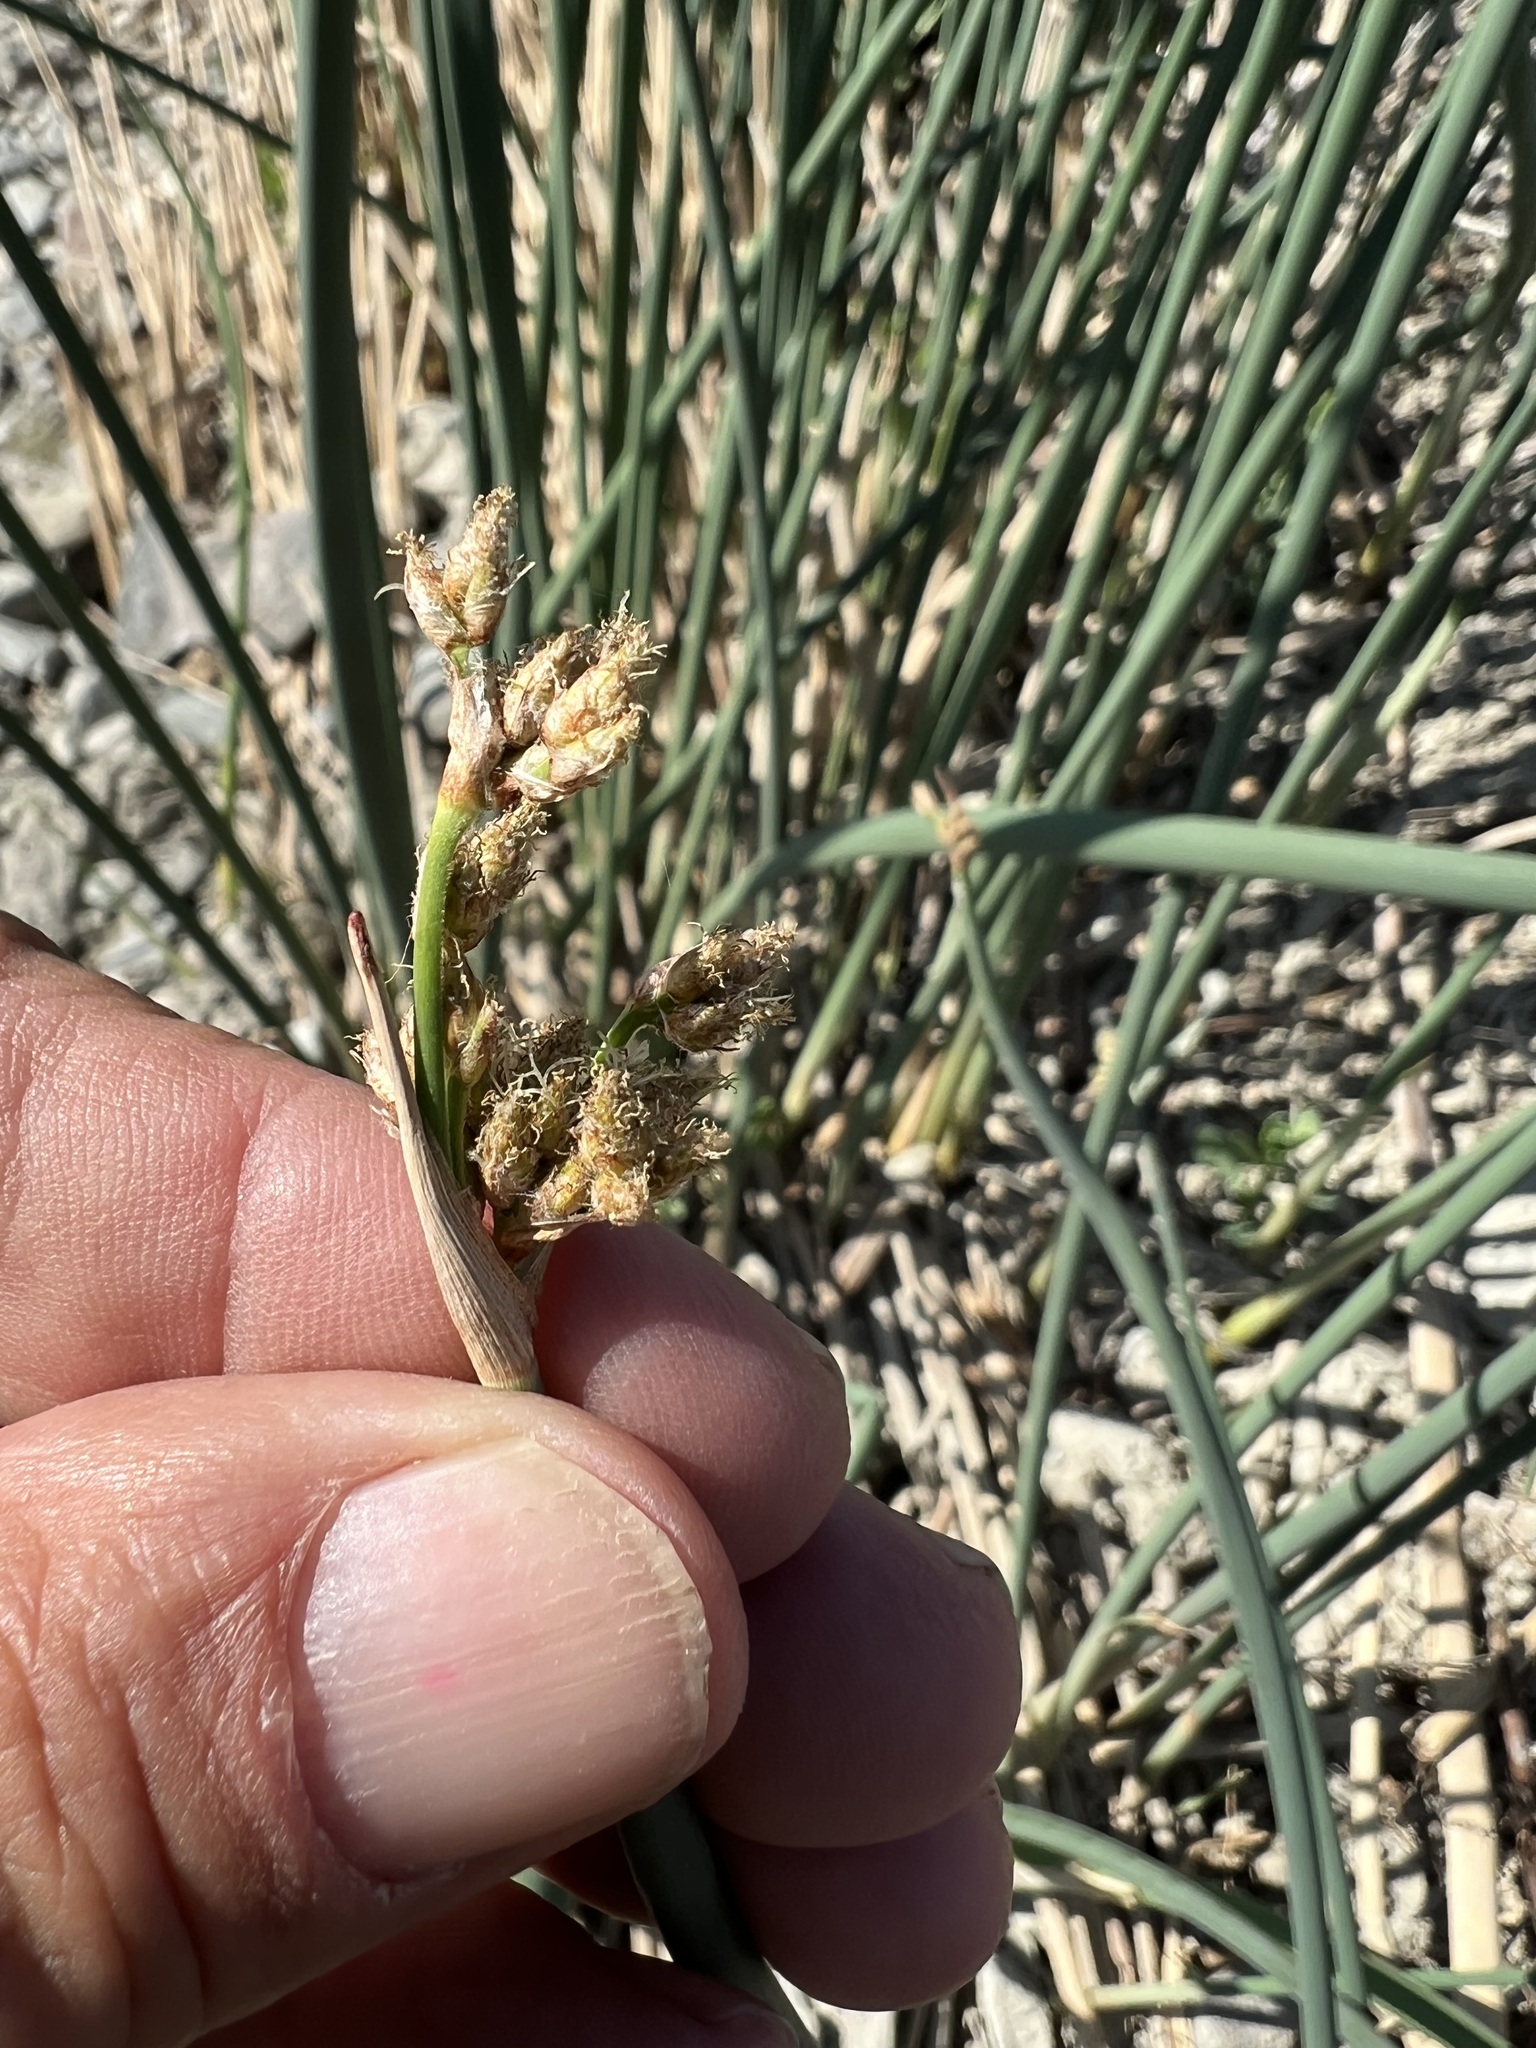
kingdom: Plantae
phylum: Tracheophyta
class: Liliopsida
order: Poales
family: Cyperaceae
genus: Schoenoplectus
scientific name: Schoenoplectus acutus
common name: Hardstem bulrush
